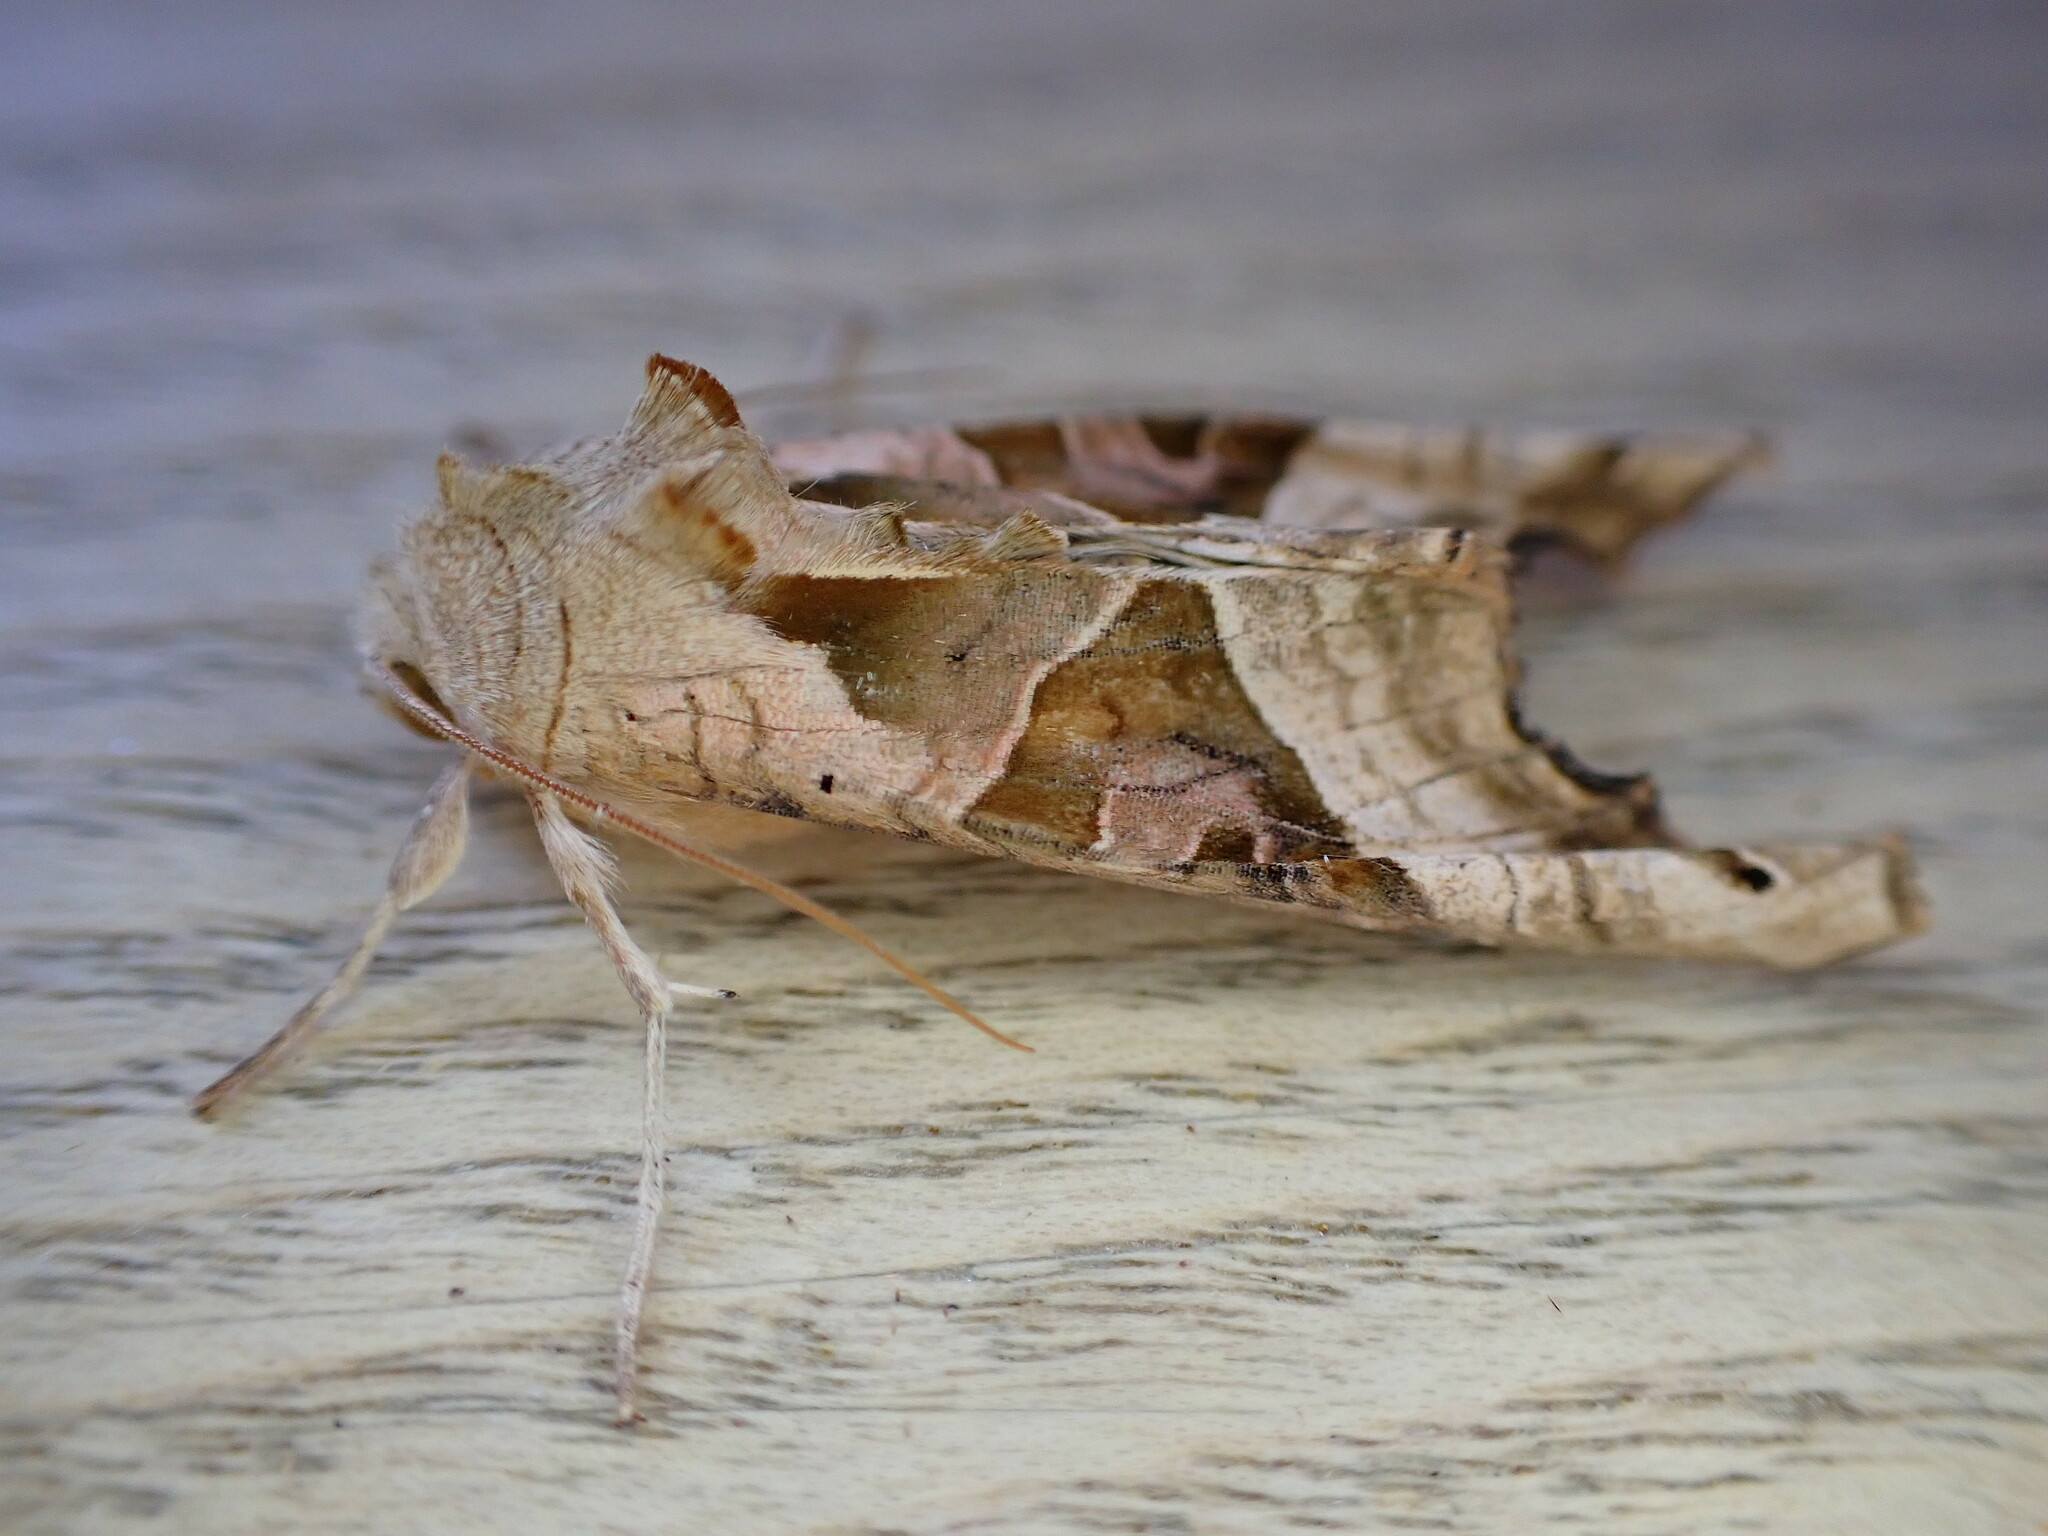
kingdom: Animalia
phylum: Arthropoda
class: Insecta
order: Lepidoptera
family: Noctuidae
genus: Phlogophora
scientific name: Phlogophora meticulosa
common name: Angle shades
